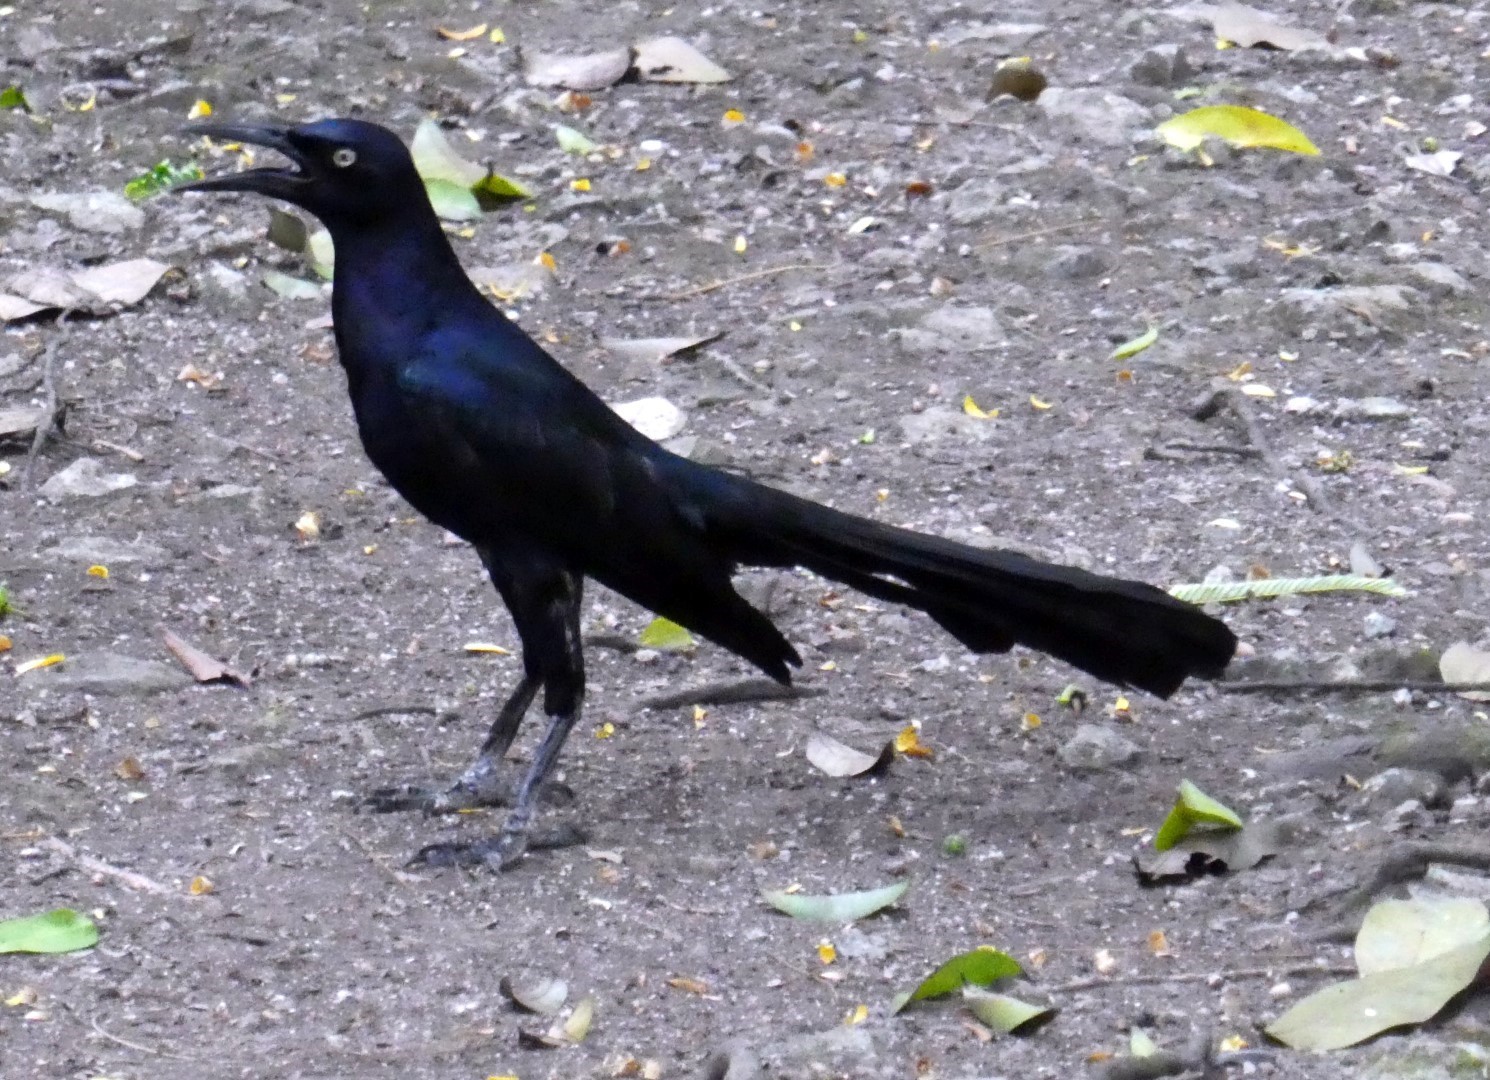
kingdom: Animalia
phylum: Chordata
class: Aves
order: Passeriformes
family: Icteridae
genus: Quiscalus
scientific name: Quiscalus mexicanus
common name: Great-tailed grackle
